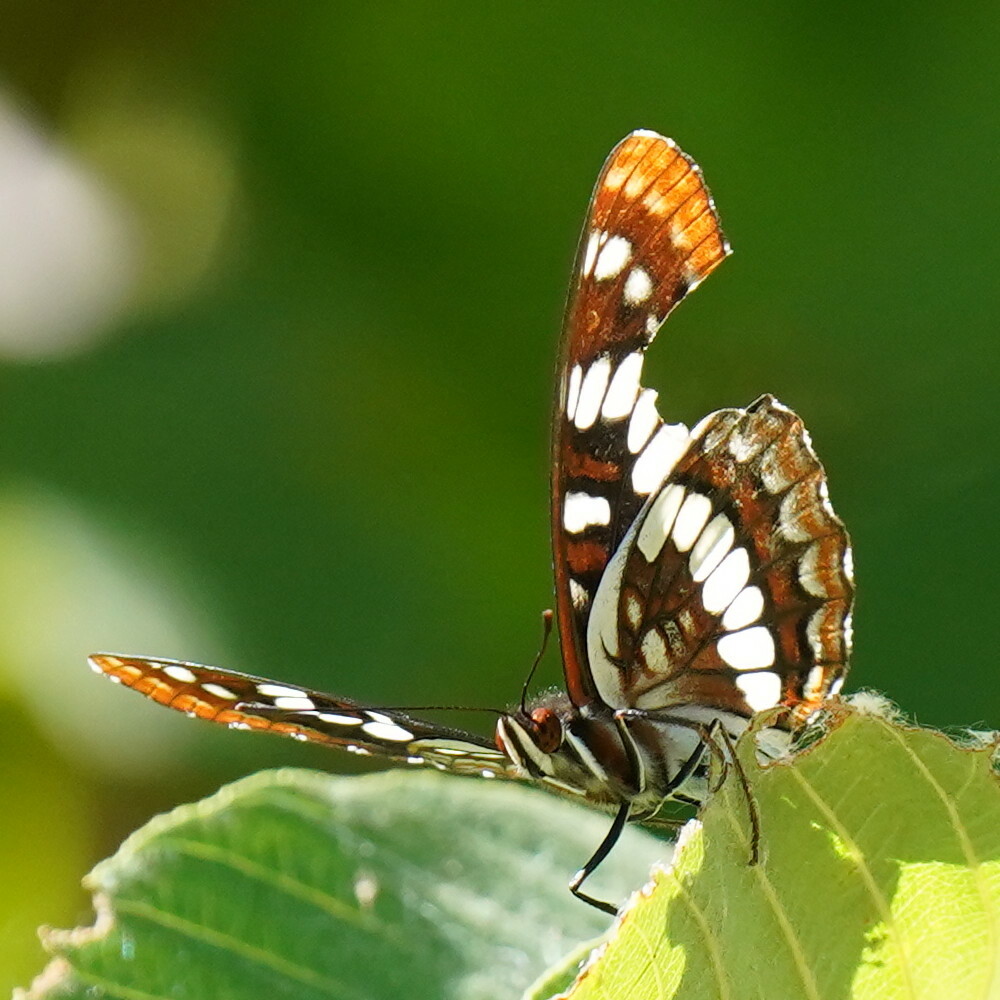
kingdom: Animalia
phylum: Arthropoda
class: Insecta
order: Lepidoptera
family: Nymphalidae
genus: Limenitis
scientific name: Limenitis lorquini
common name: Lorquin's admiral
